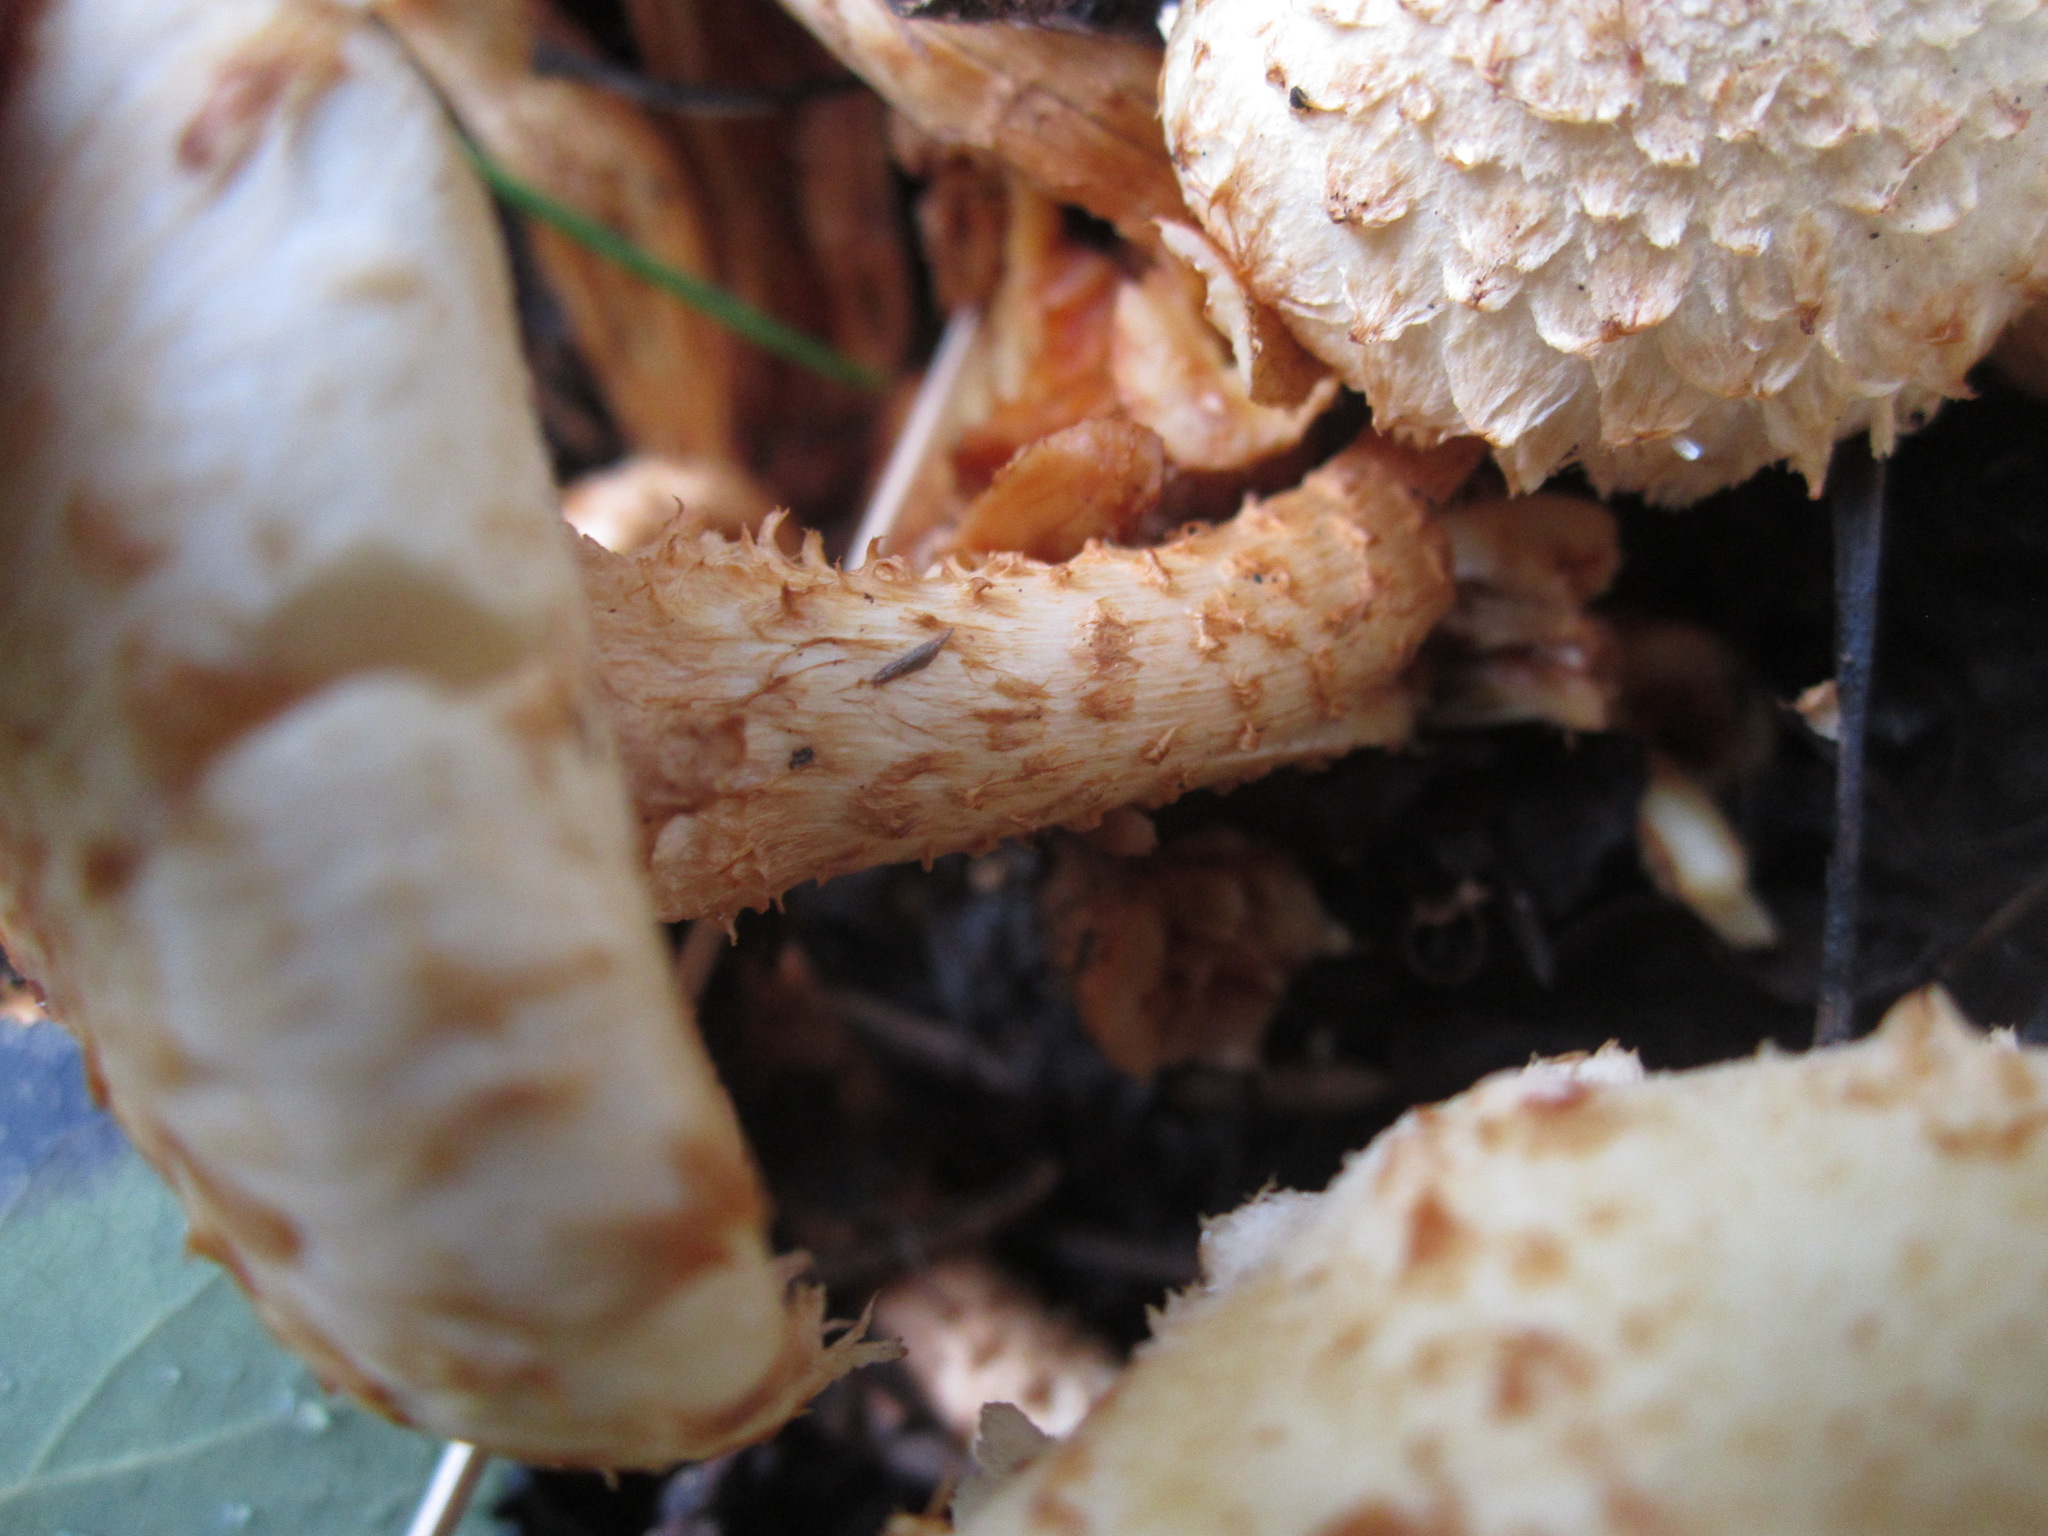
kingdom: Fungi
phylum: Basidiomycota
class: Agaricomycetes
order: Agaricales
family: Strophariaceae
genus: Pholiota
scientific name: Pholiota squarrosa
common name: Shaggy pholiota
